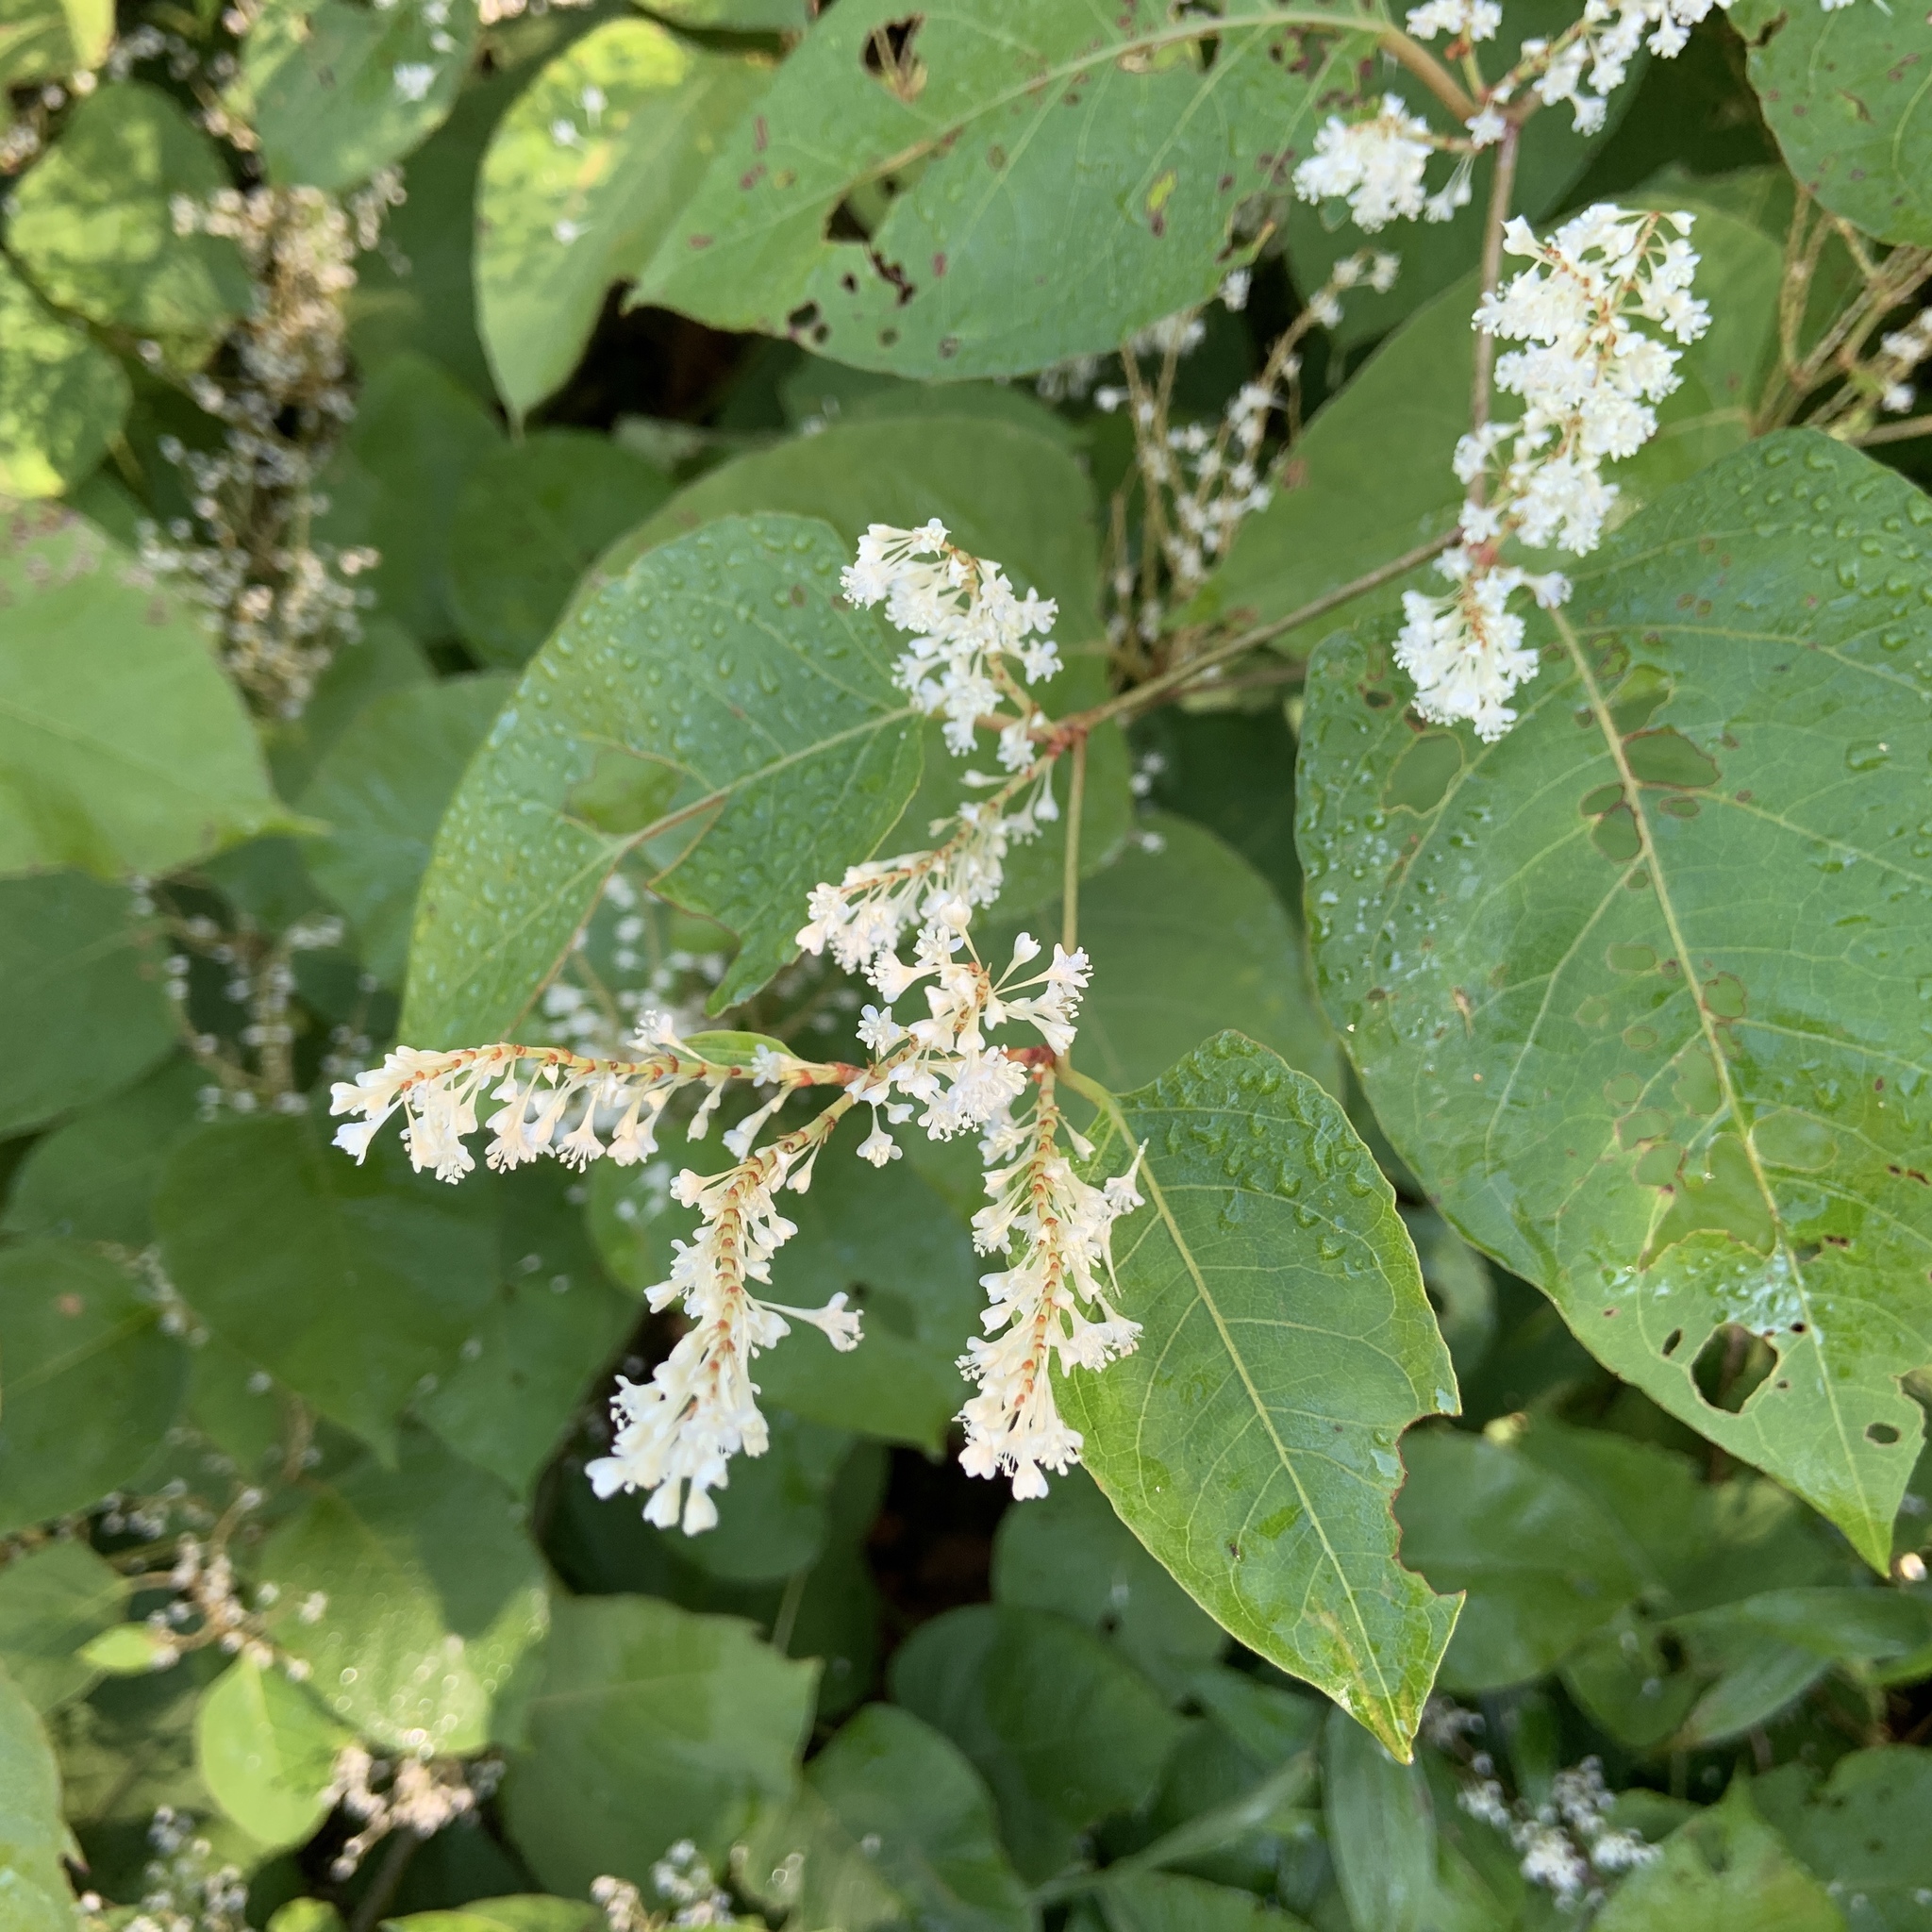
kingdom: Plantae
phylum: Tracheophyta
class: Magnoliopsida
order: Caryophyllales
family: Polygonaceae
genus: Reynoutria
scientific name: Reynoutria japonica
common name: Japanese knotweed
